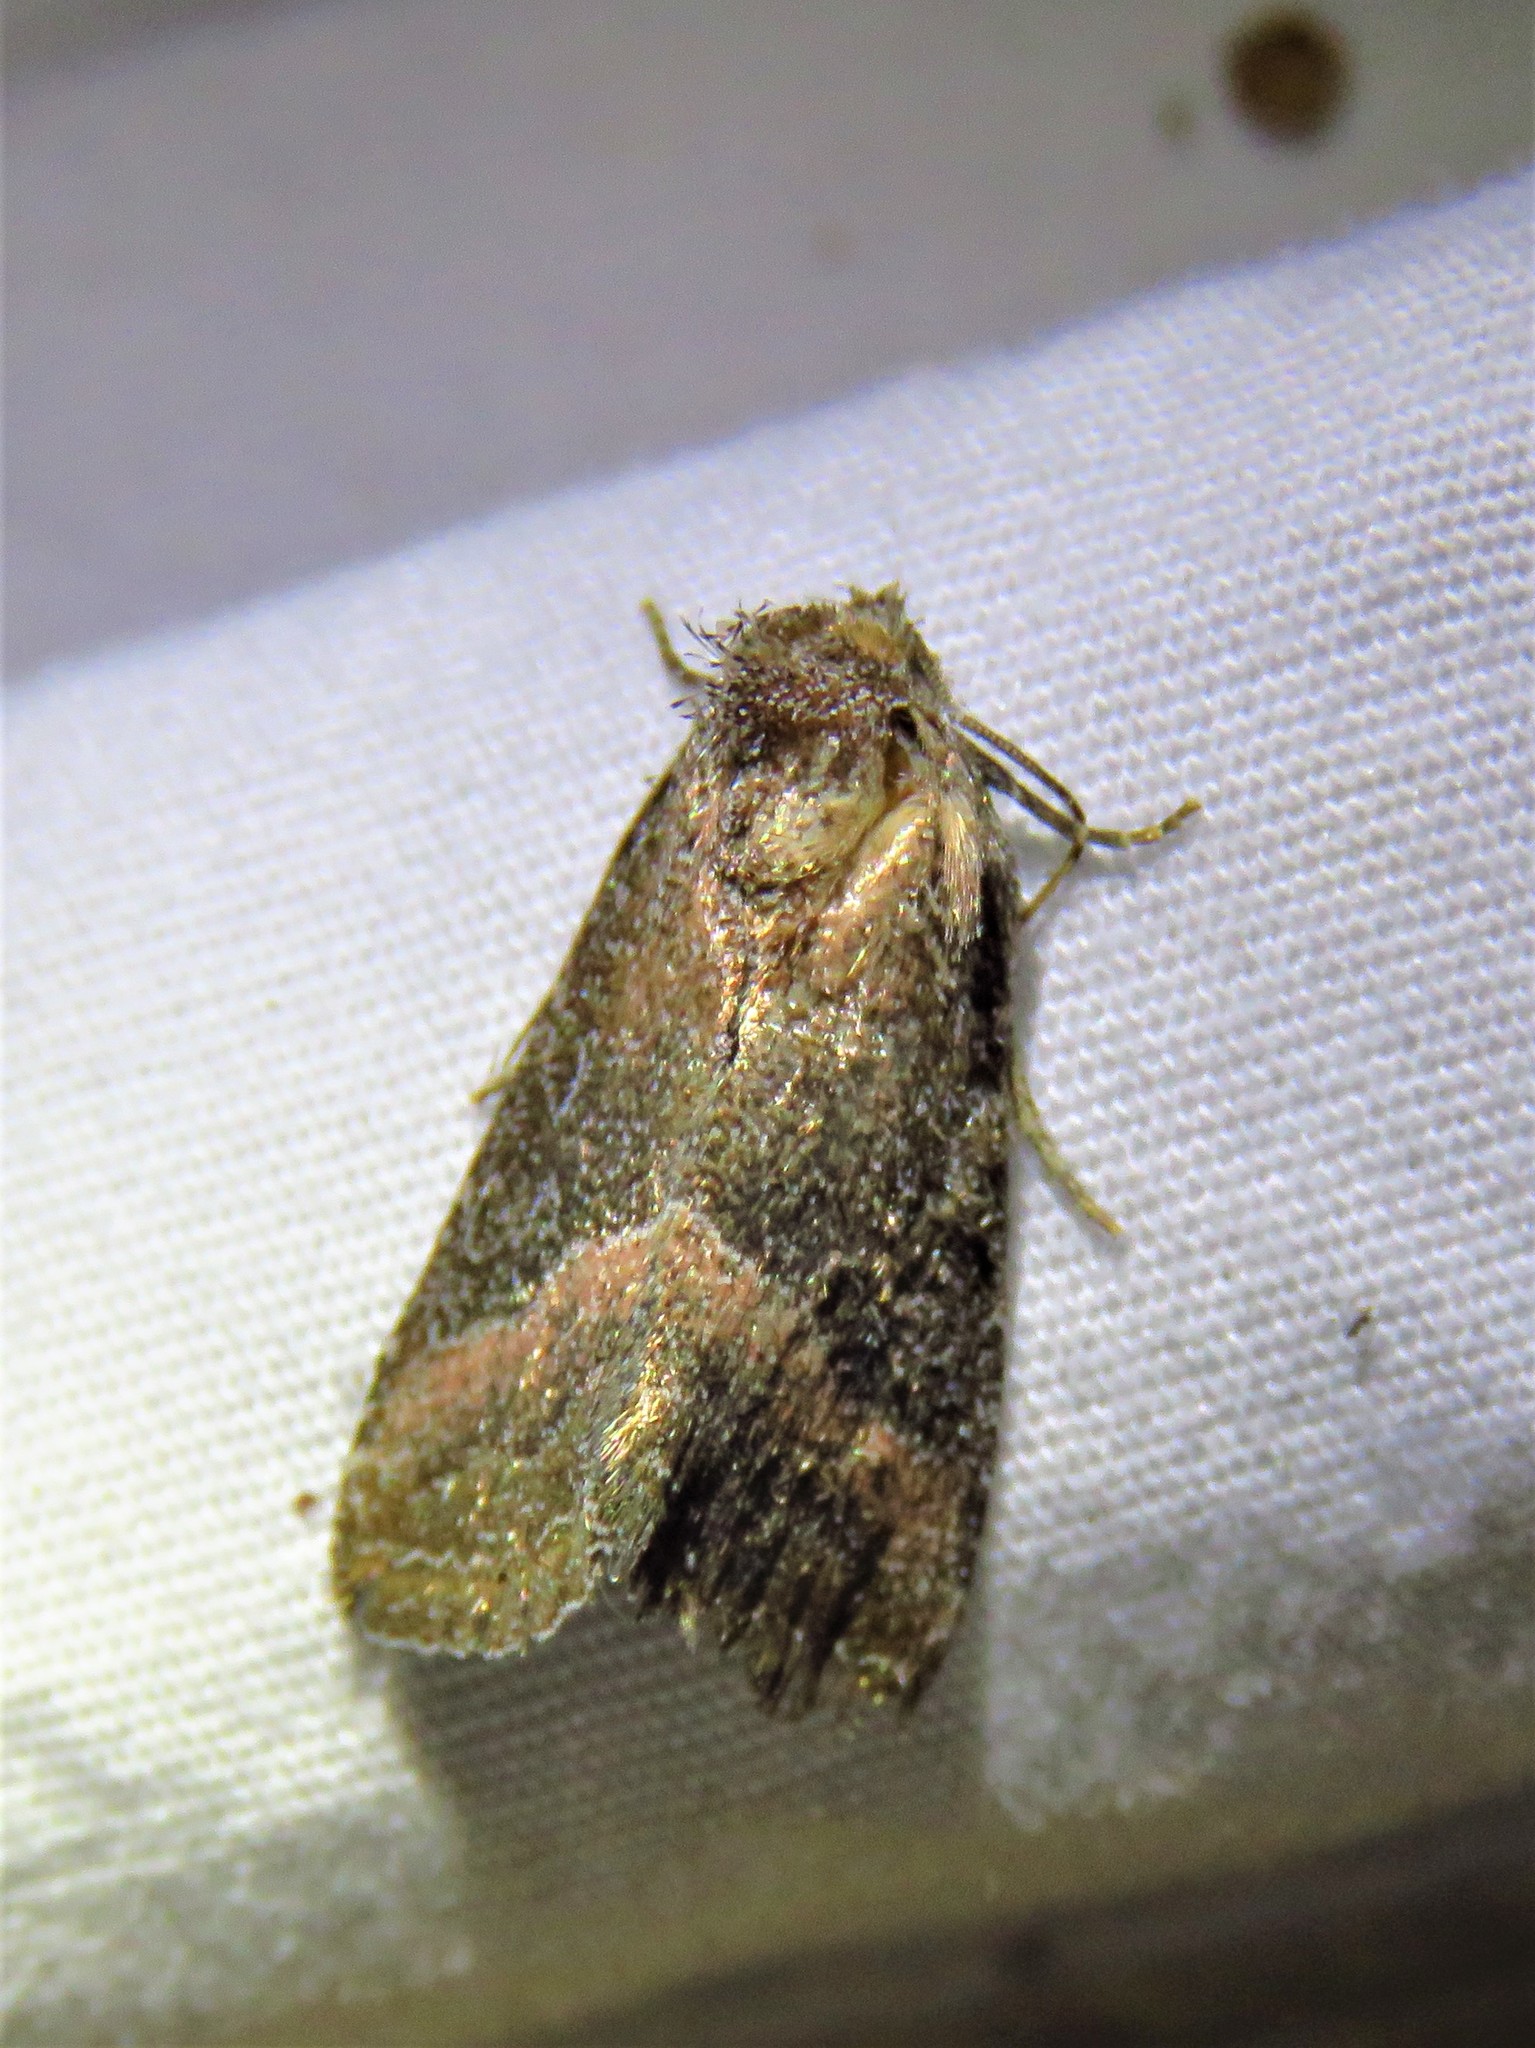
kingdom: Animalia
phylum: Arthropoda
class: Insecta
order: Lepidoptera
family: Noctuidae
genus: Ogdoconta
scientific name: Ogdoconta cinereola
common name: Common pinkband
